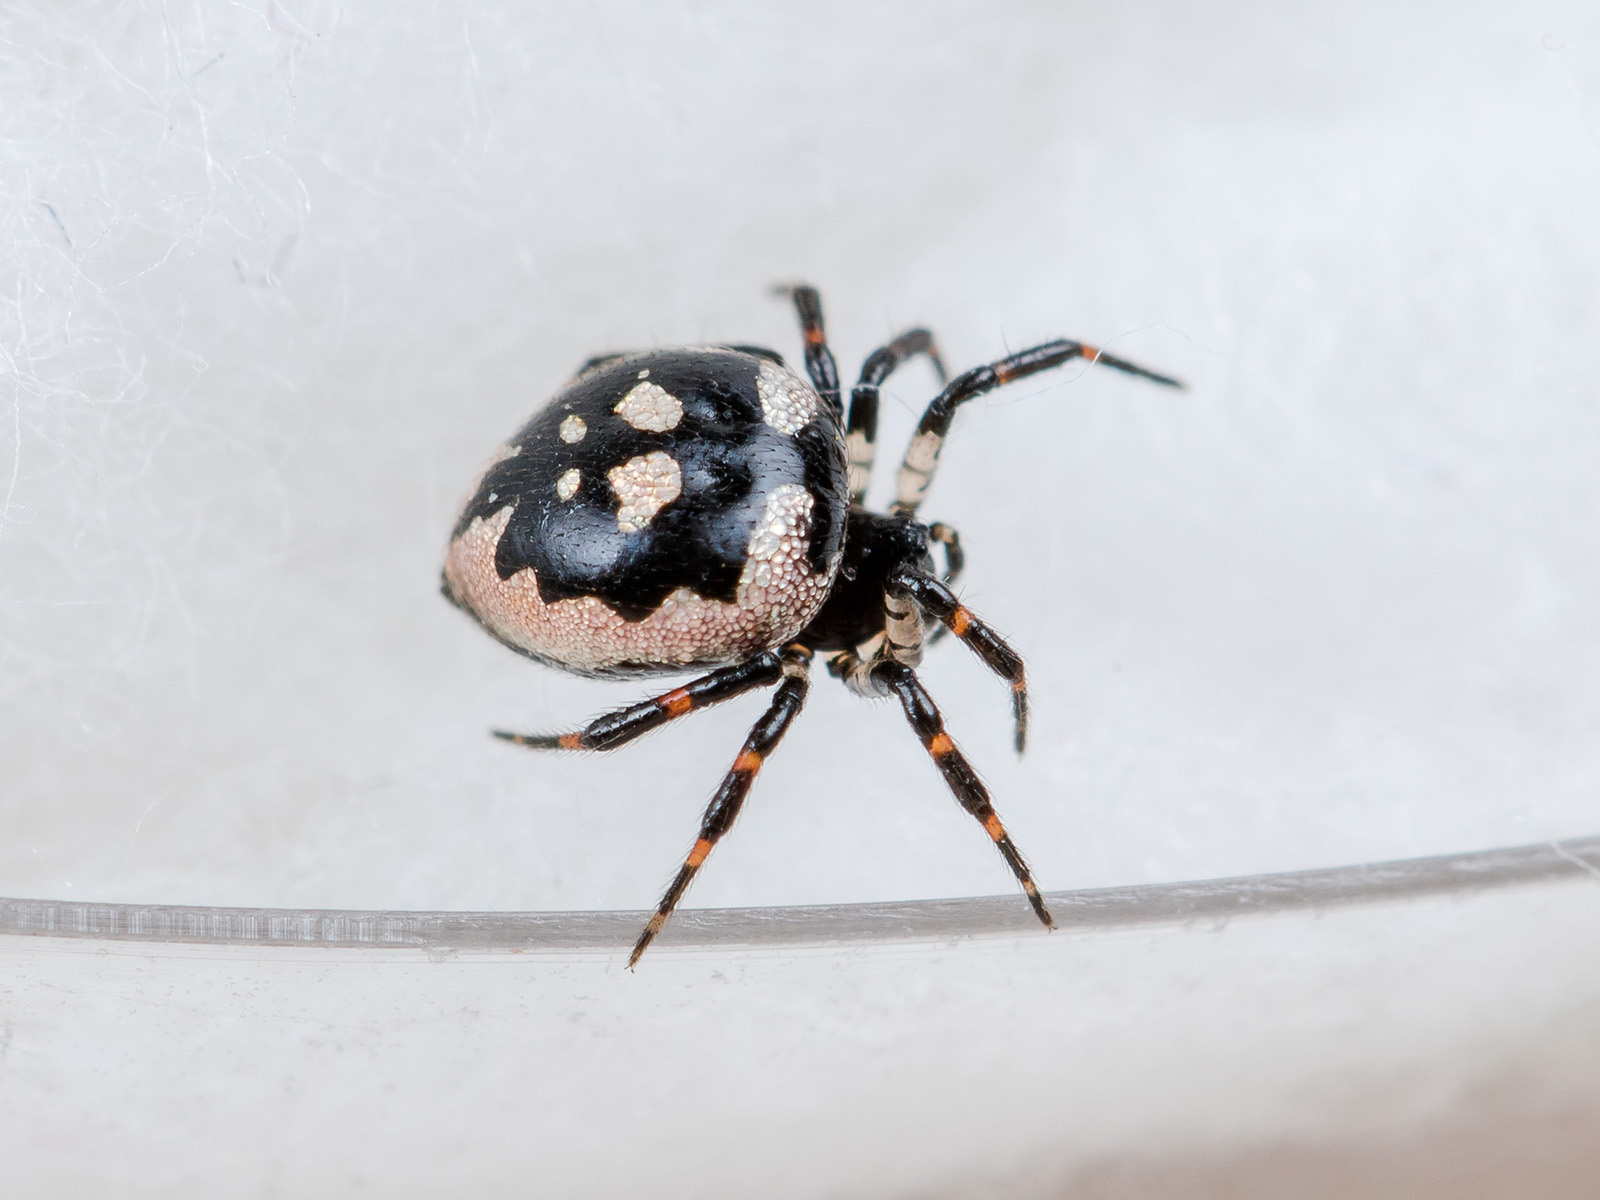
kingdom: Animalia
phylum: Arthropoda
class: Arachnida
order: Araneae
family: Theridiidae
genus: Euryopis
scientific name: Euryopis saukea
